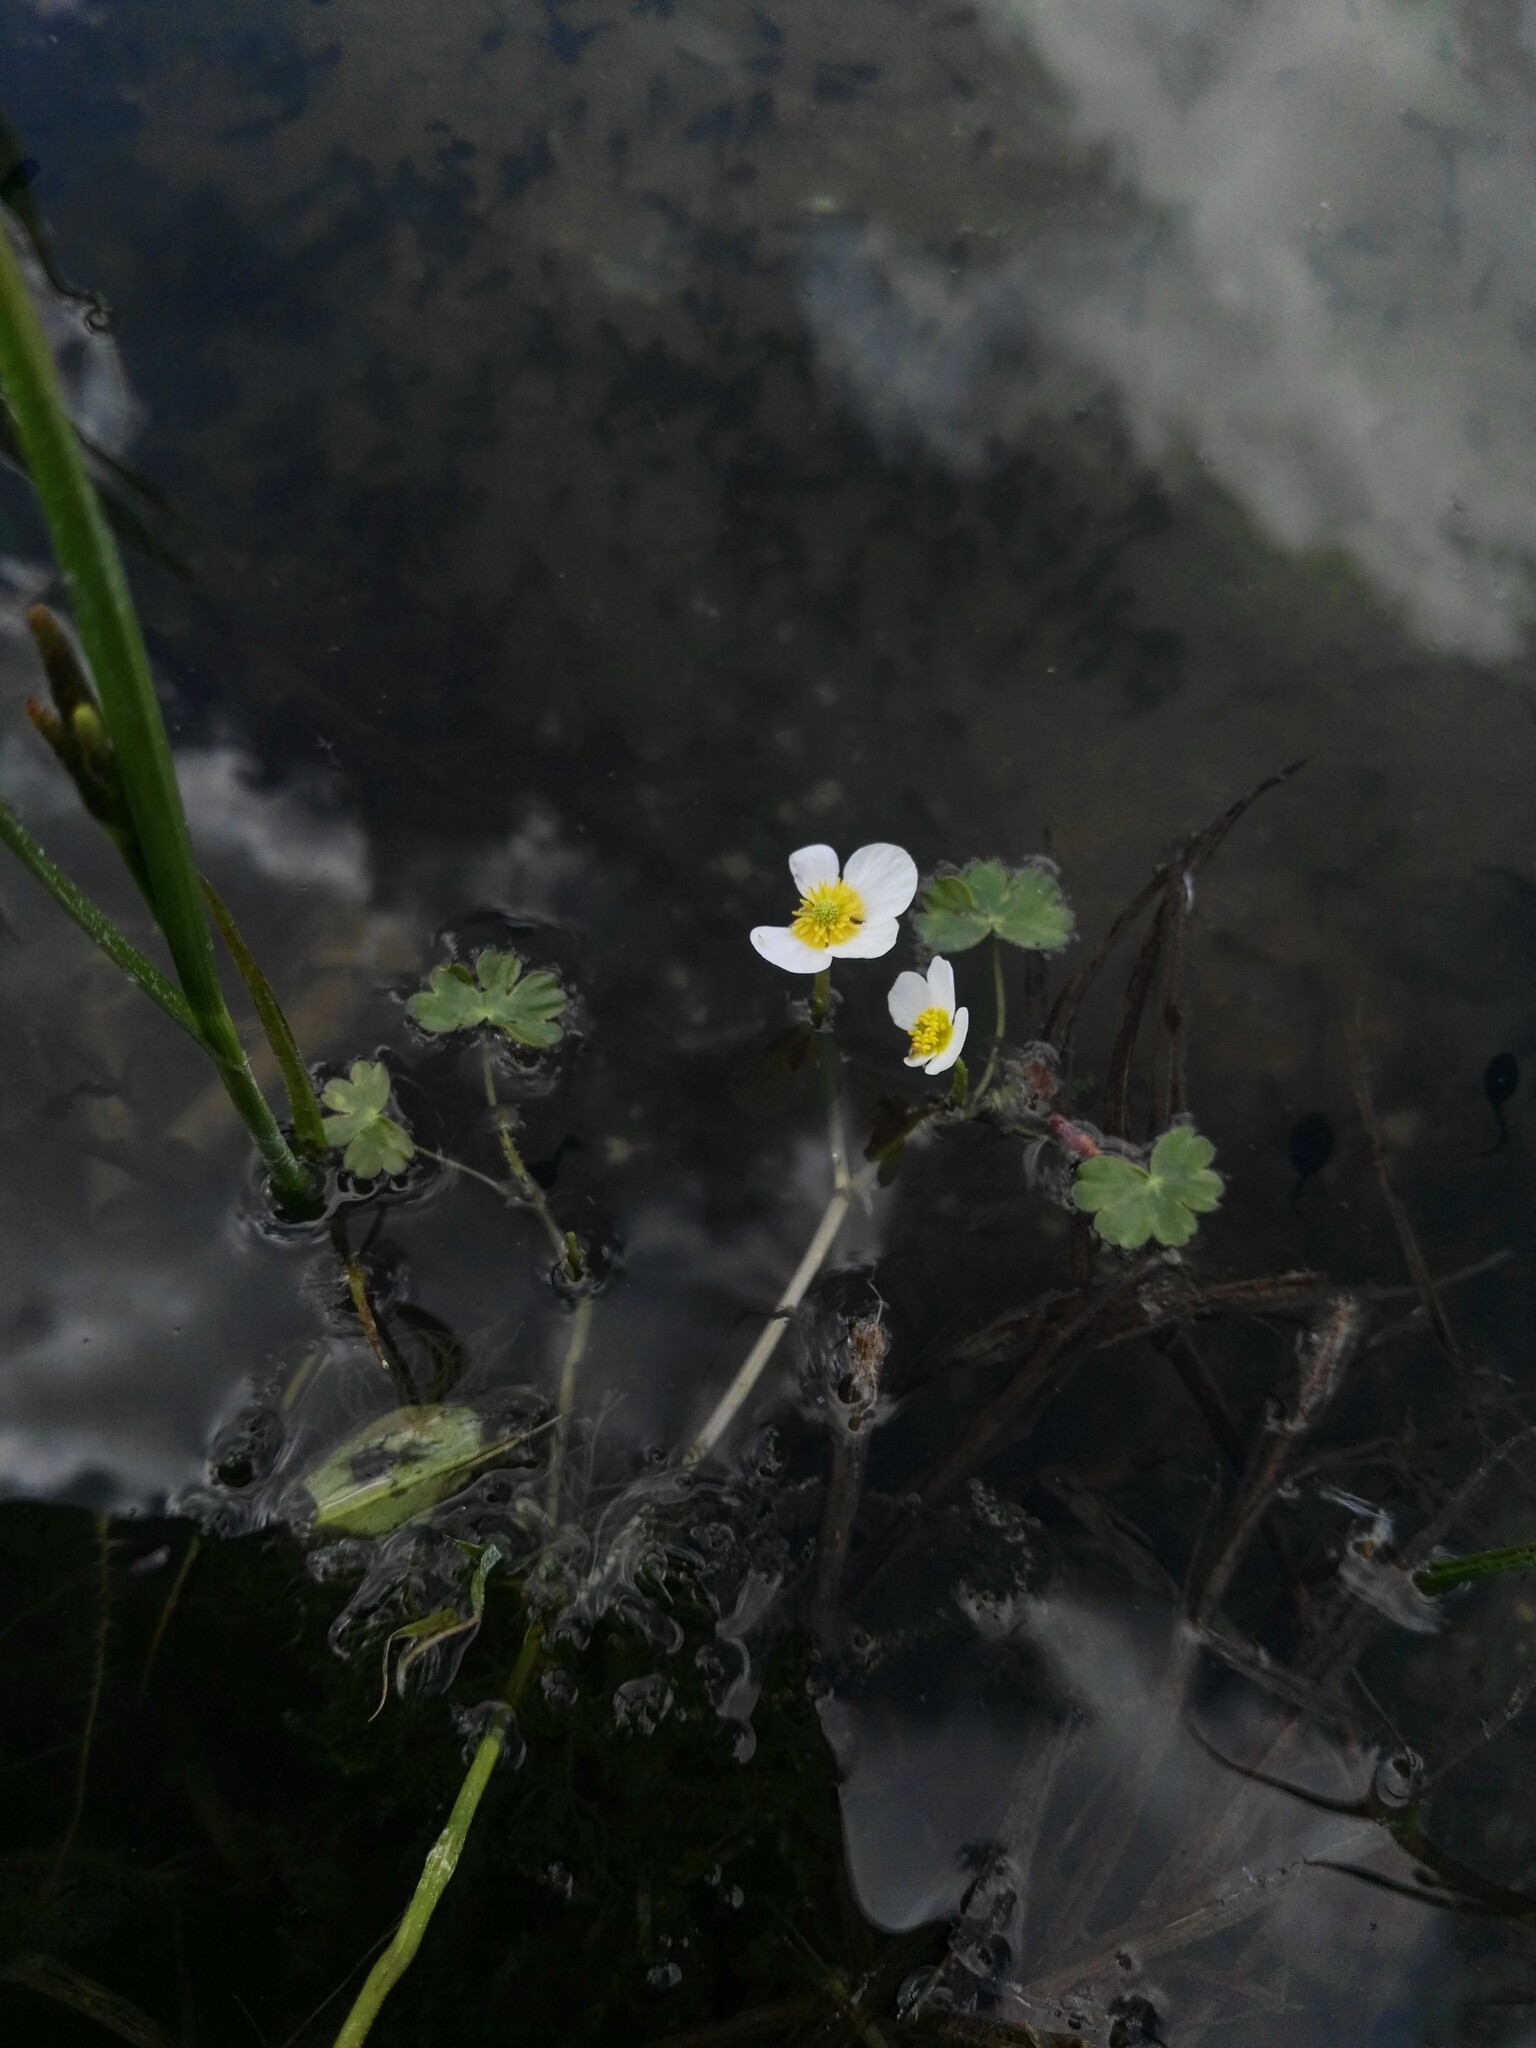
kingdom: Plantae
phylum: Tracheophyta
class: Magnoliopsida
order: Ranunculales
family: Ranunculaceae
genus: Ranunculus
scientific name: Ranunculus aquatilis
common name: Common water-crowfoot
